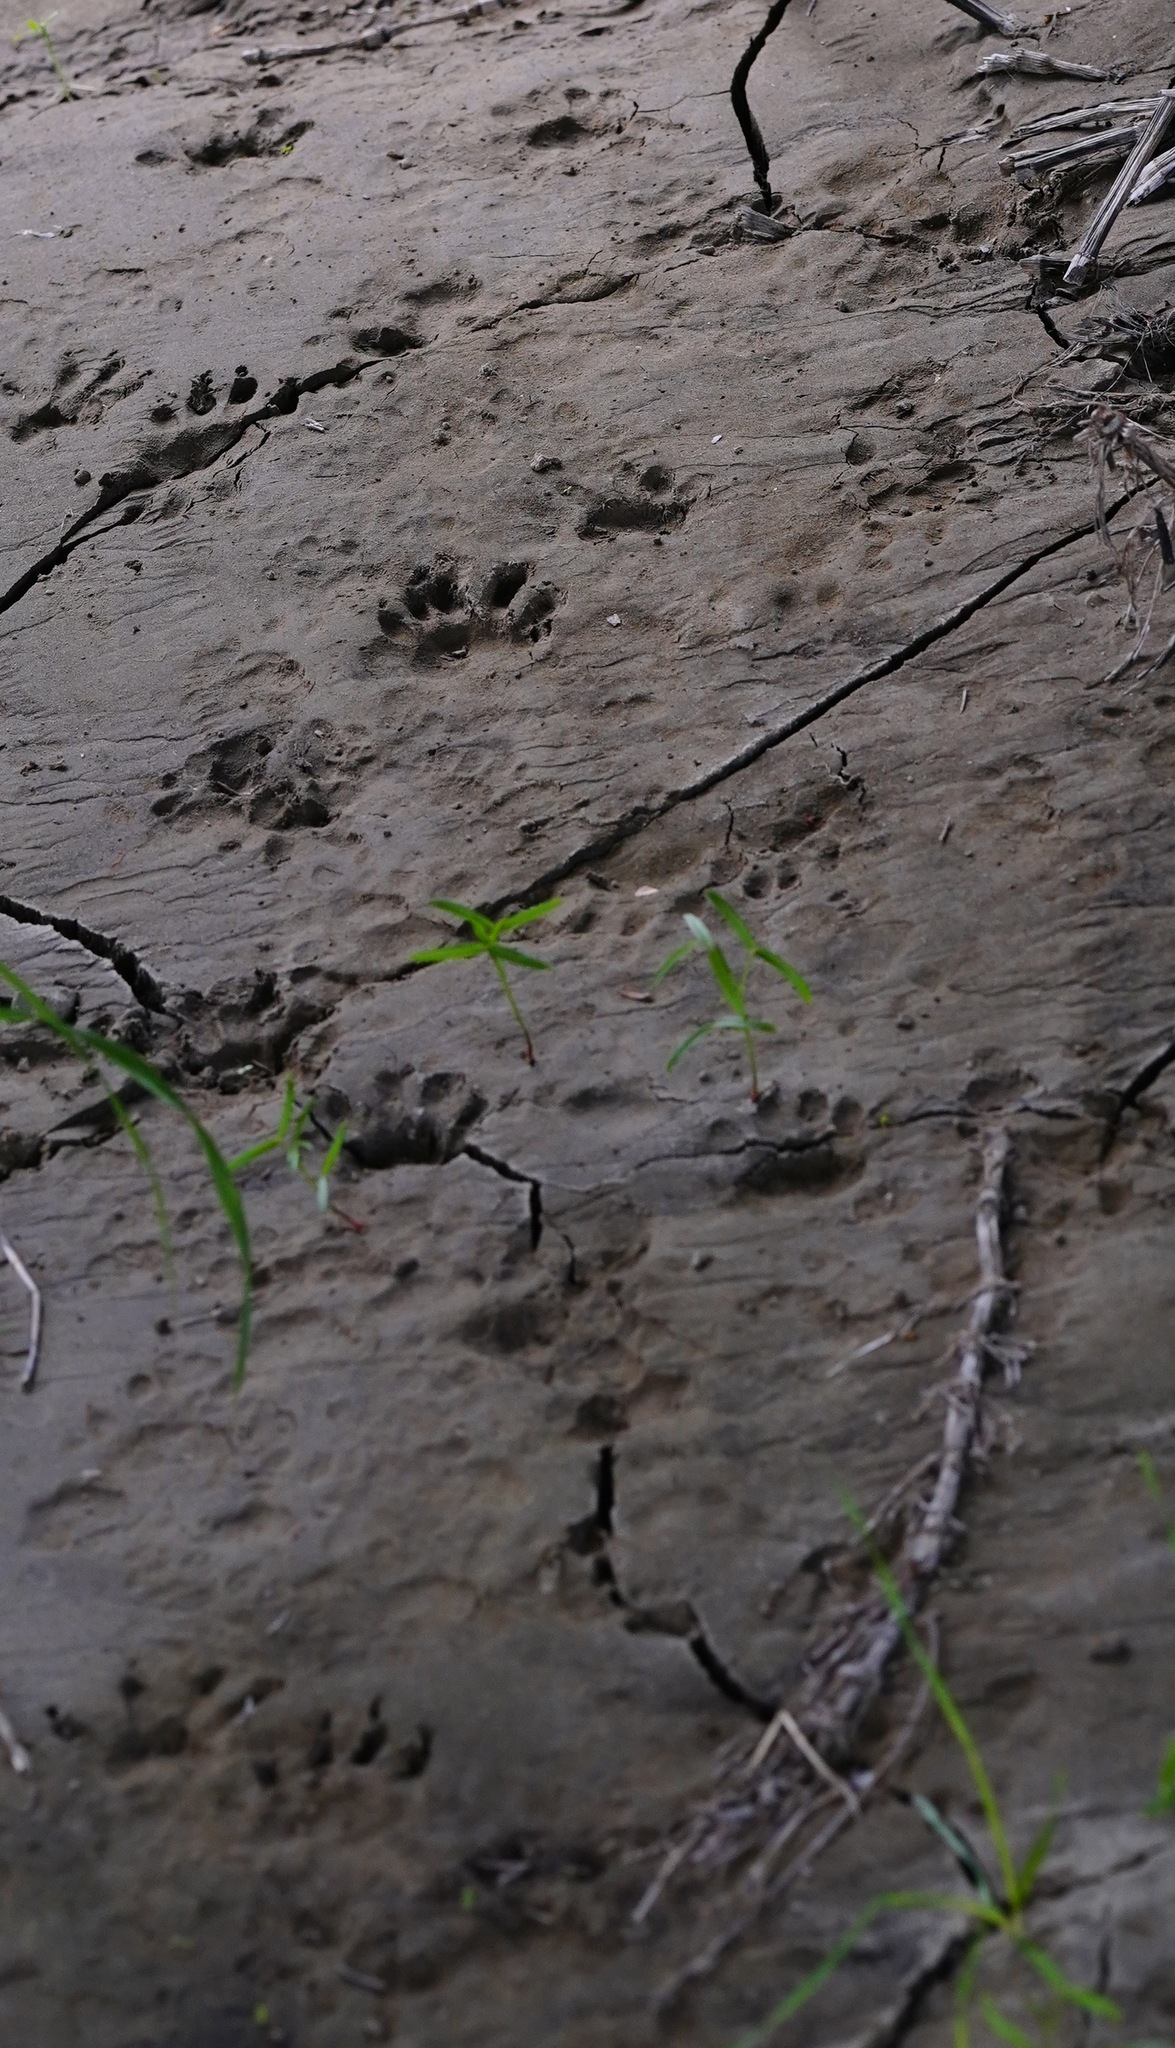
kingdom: Animalia
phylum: Chordata
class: Mammalia
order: Carnivora
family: Procyonidae
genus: Procyon
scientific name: Procyon lotor
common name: Raccoon
